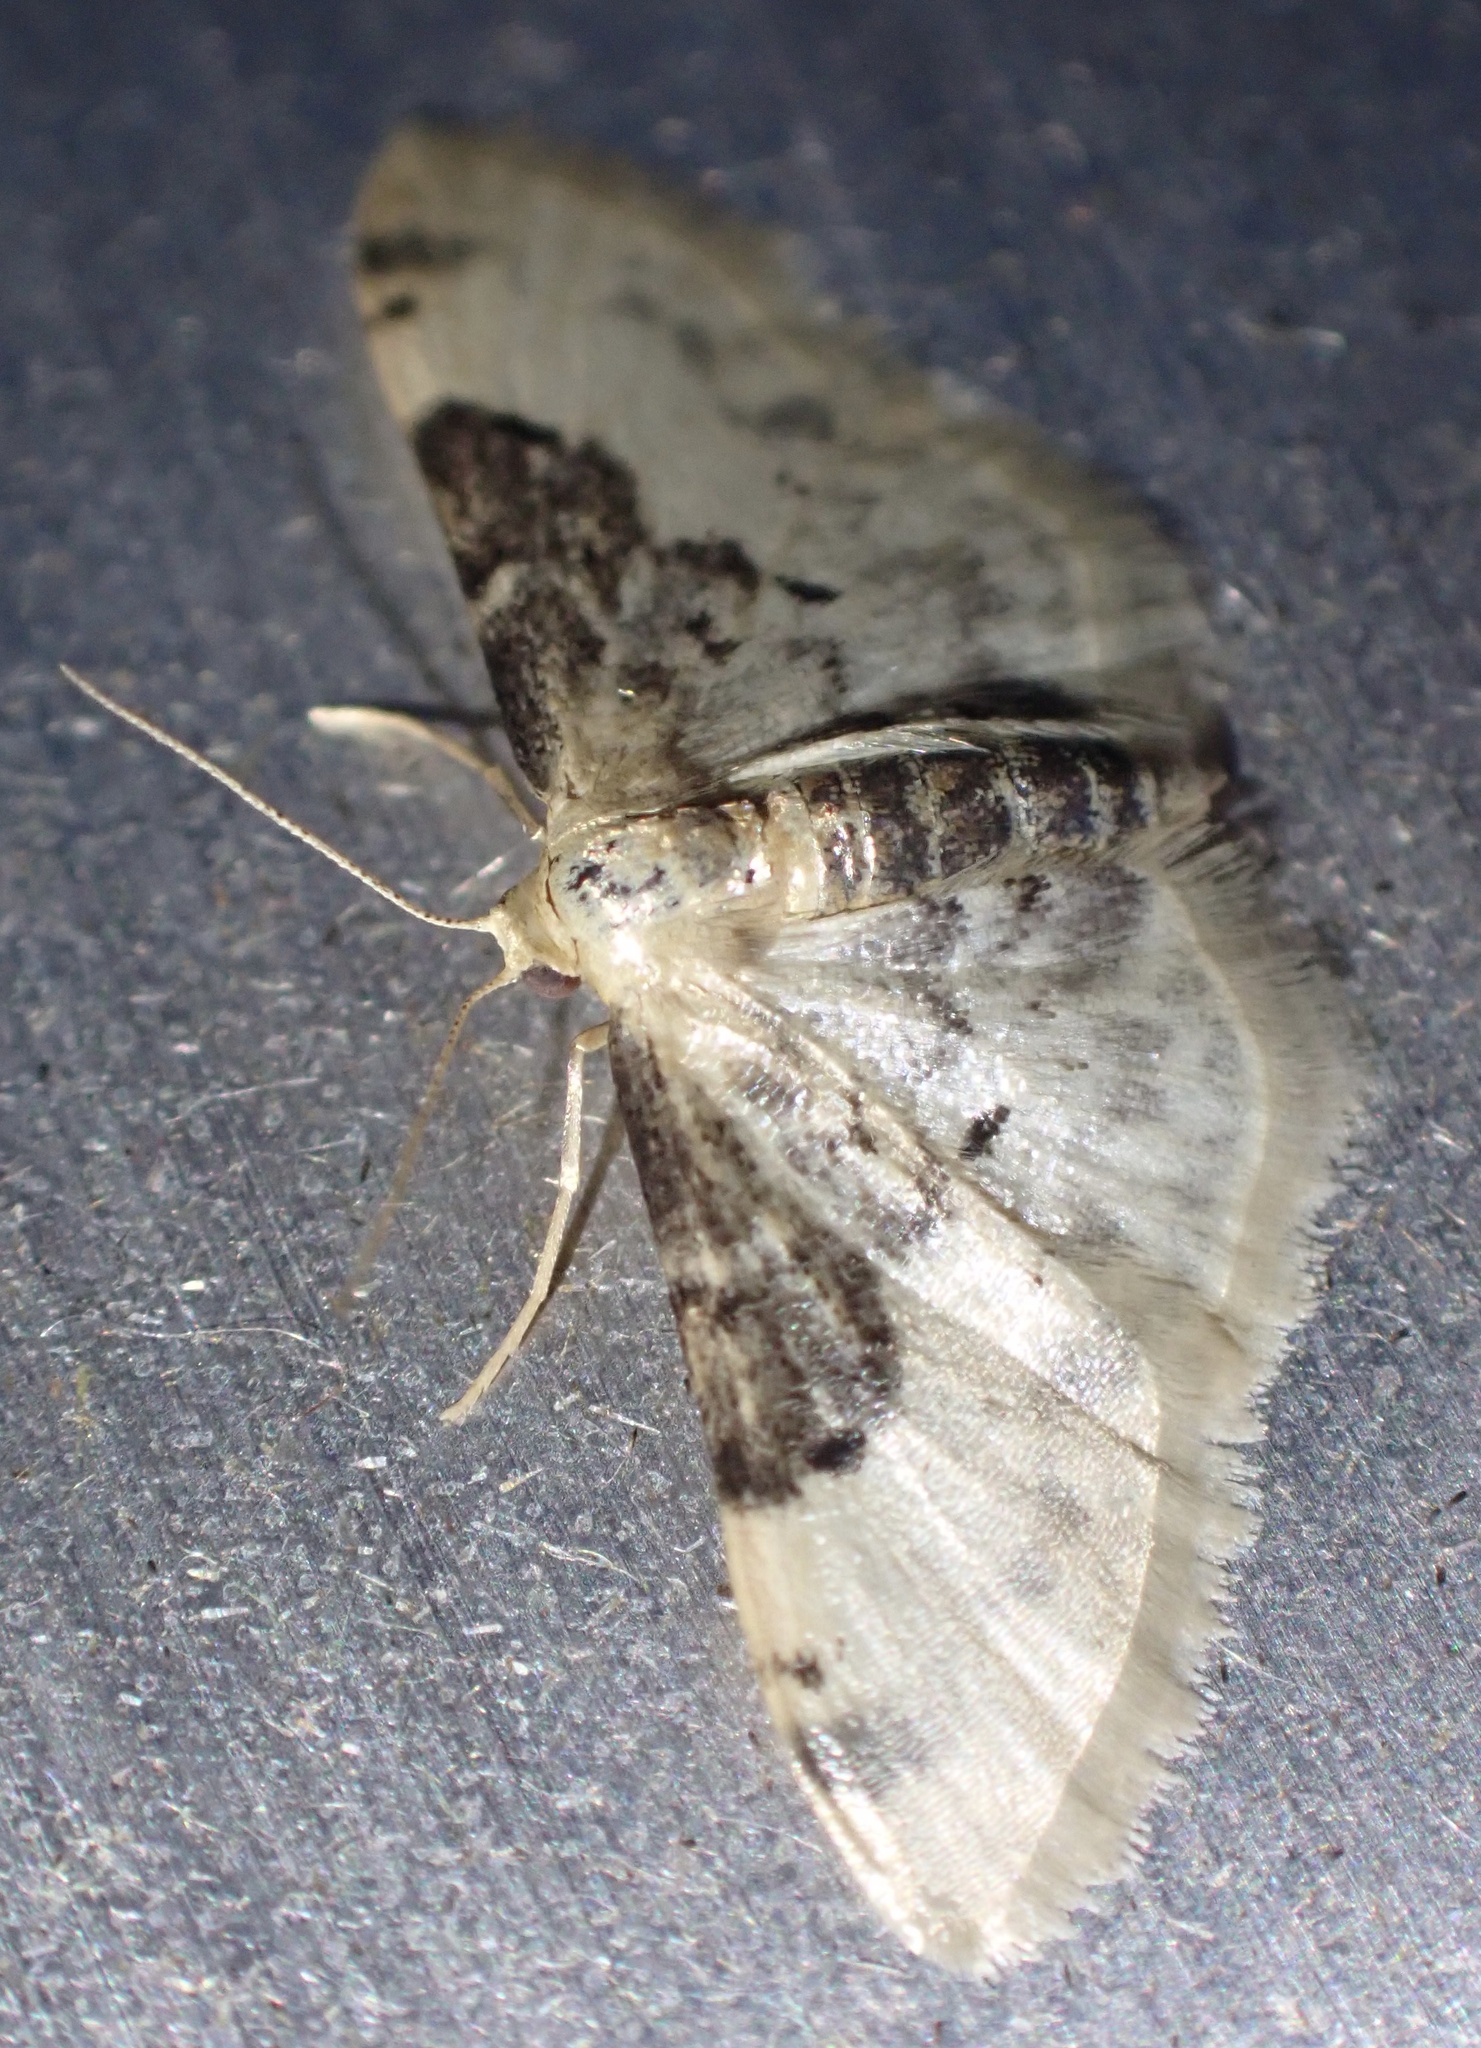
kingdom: Animalia
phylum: Arthropoda
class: Insecta
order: Lepidoptera
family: Geometridae
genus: Idaea
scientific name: Idaea filicata
